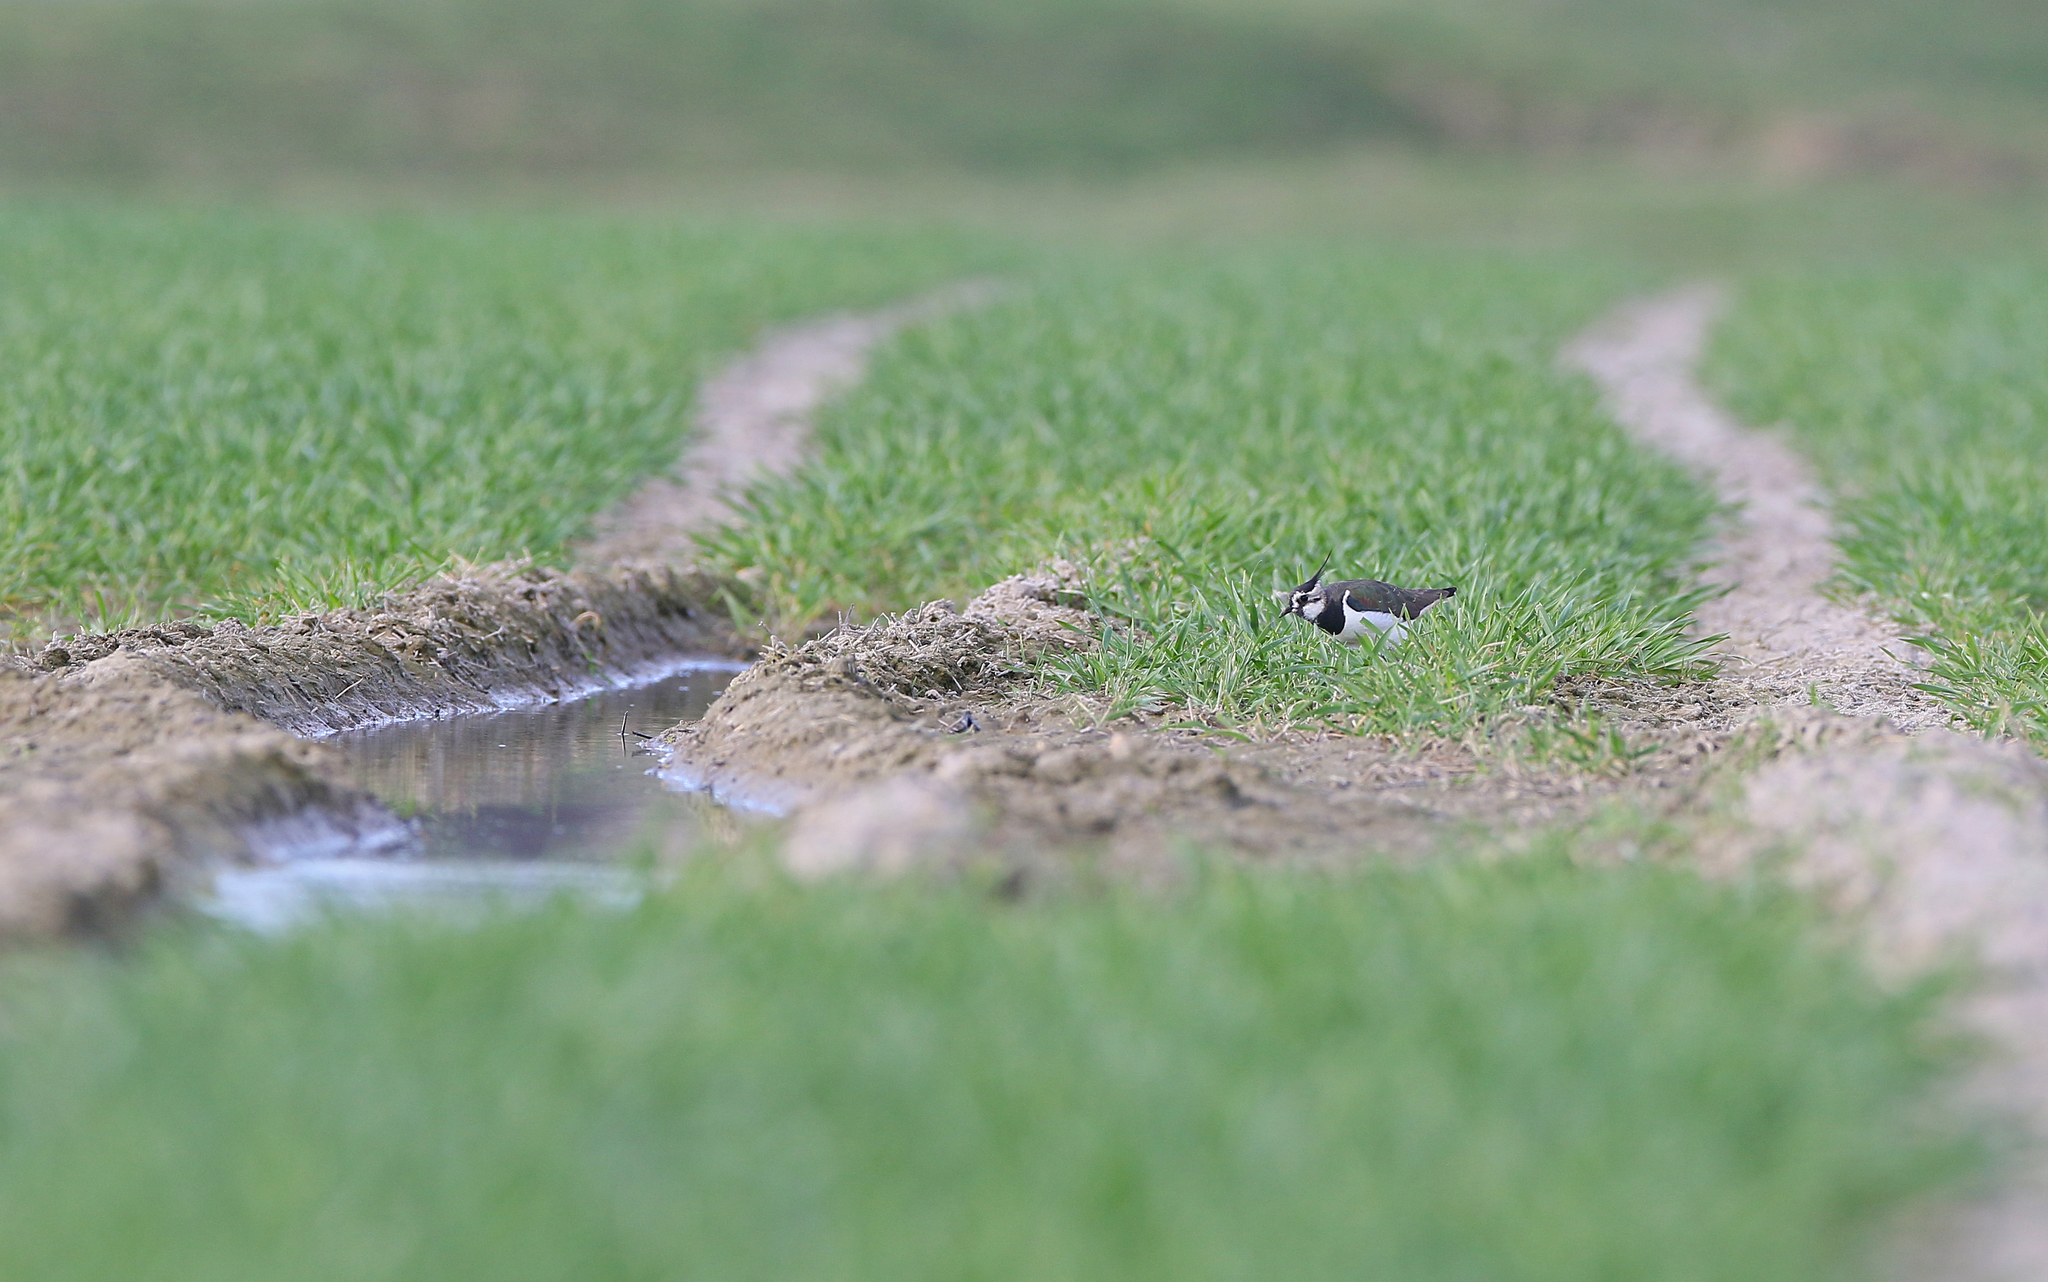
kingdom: Animalia
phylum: Chordata
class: Aves
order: Charadriiformes
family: Charadriidae
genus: Vanellus
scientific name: Vanellus vanellus
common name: Northern lapwing
